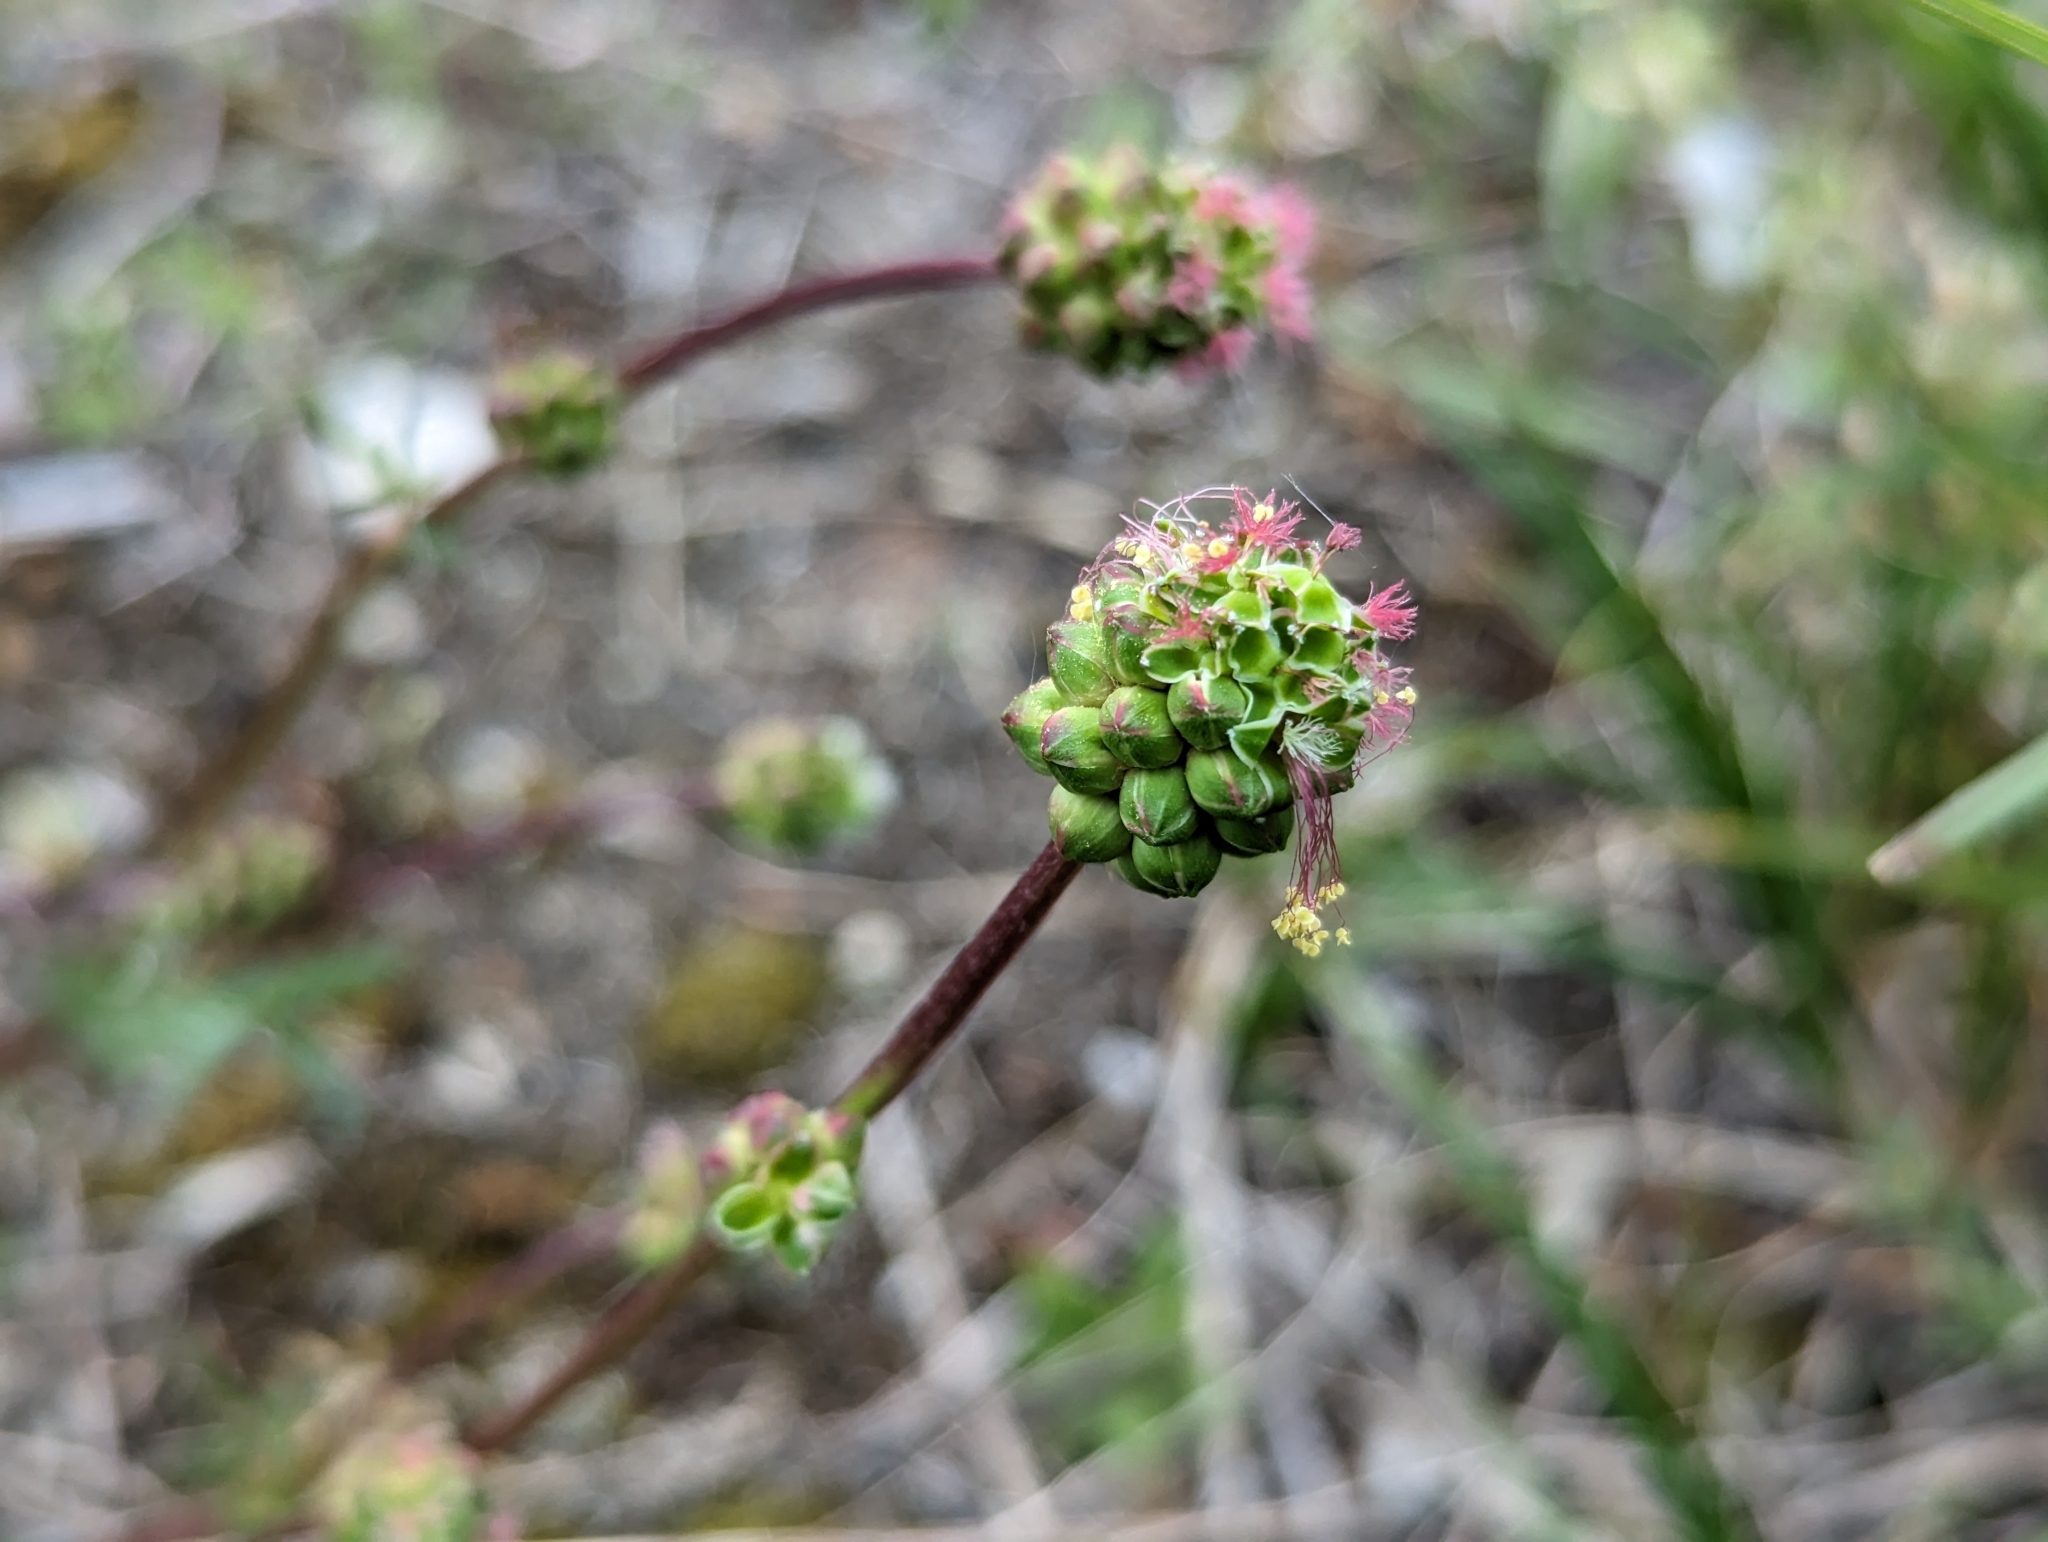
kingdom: Plantae
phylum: Tracheophyta
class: Magnoliopsida
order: Rosales
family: Rosaceae
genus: Poterium
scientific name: Poterium sanguisorba
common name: Salad burnet
